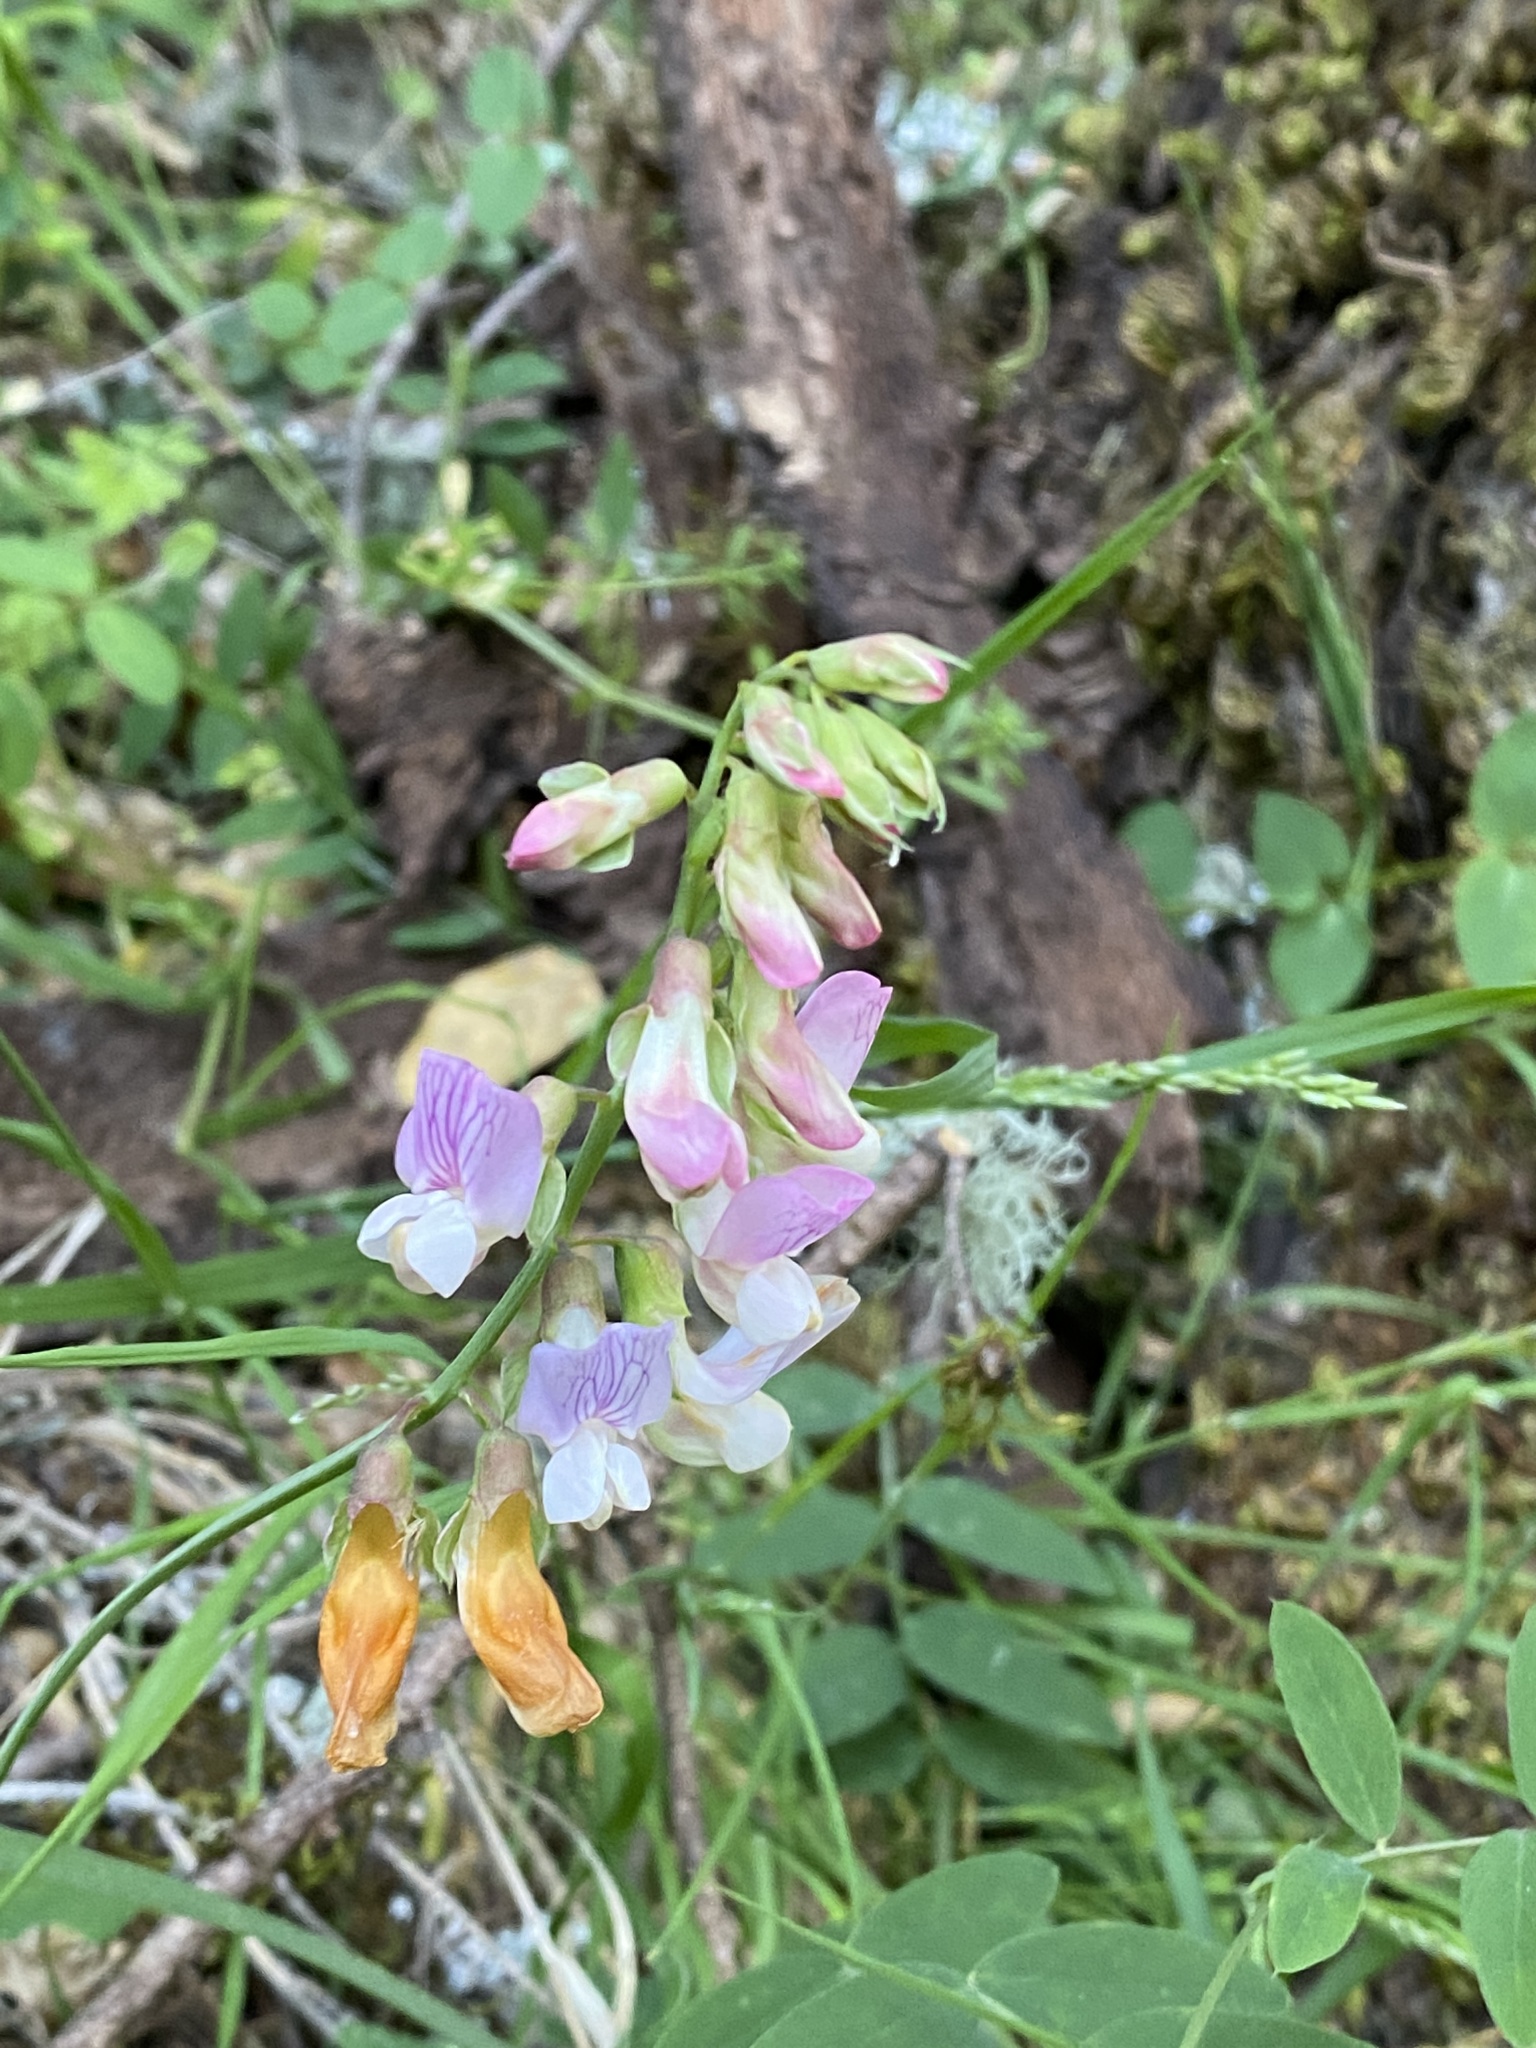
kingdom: Plantae
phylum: Tracheophyta
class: Magnoliopsida
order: Fabales
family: Fabaceae
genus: Lathyrus
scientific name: Lathyrus vestitus
